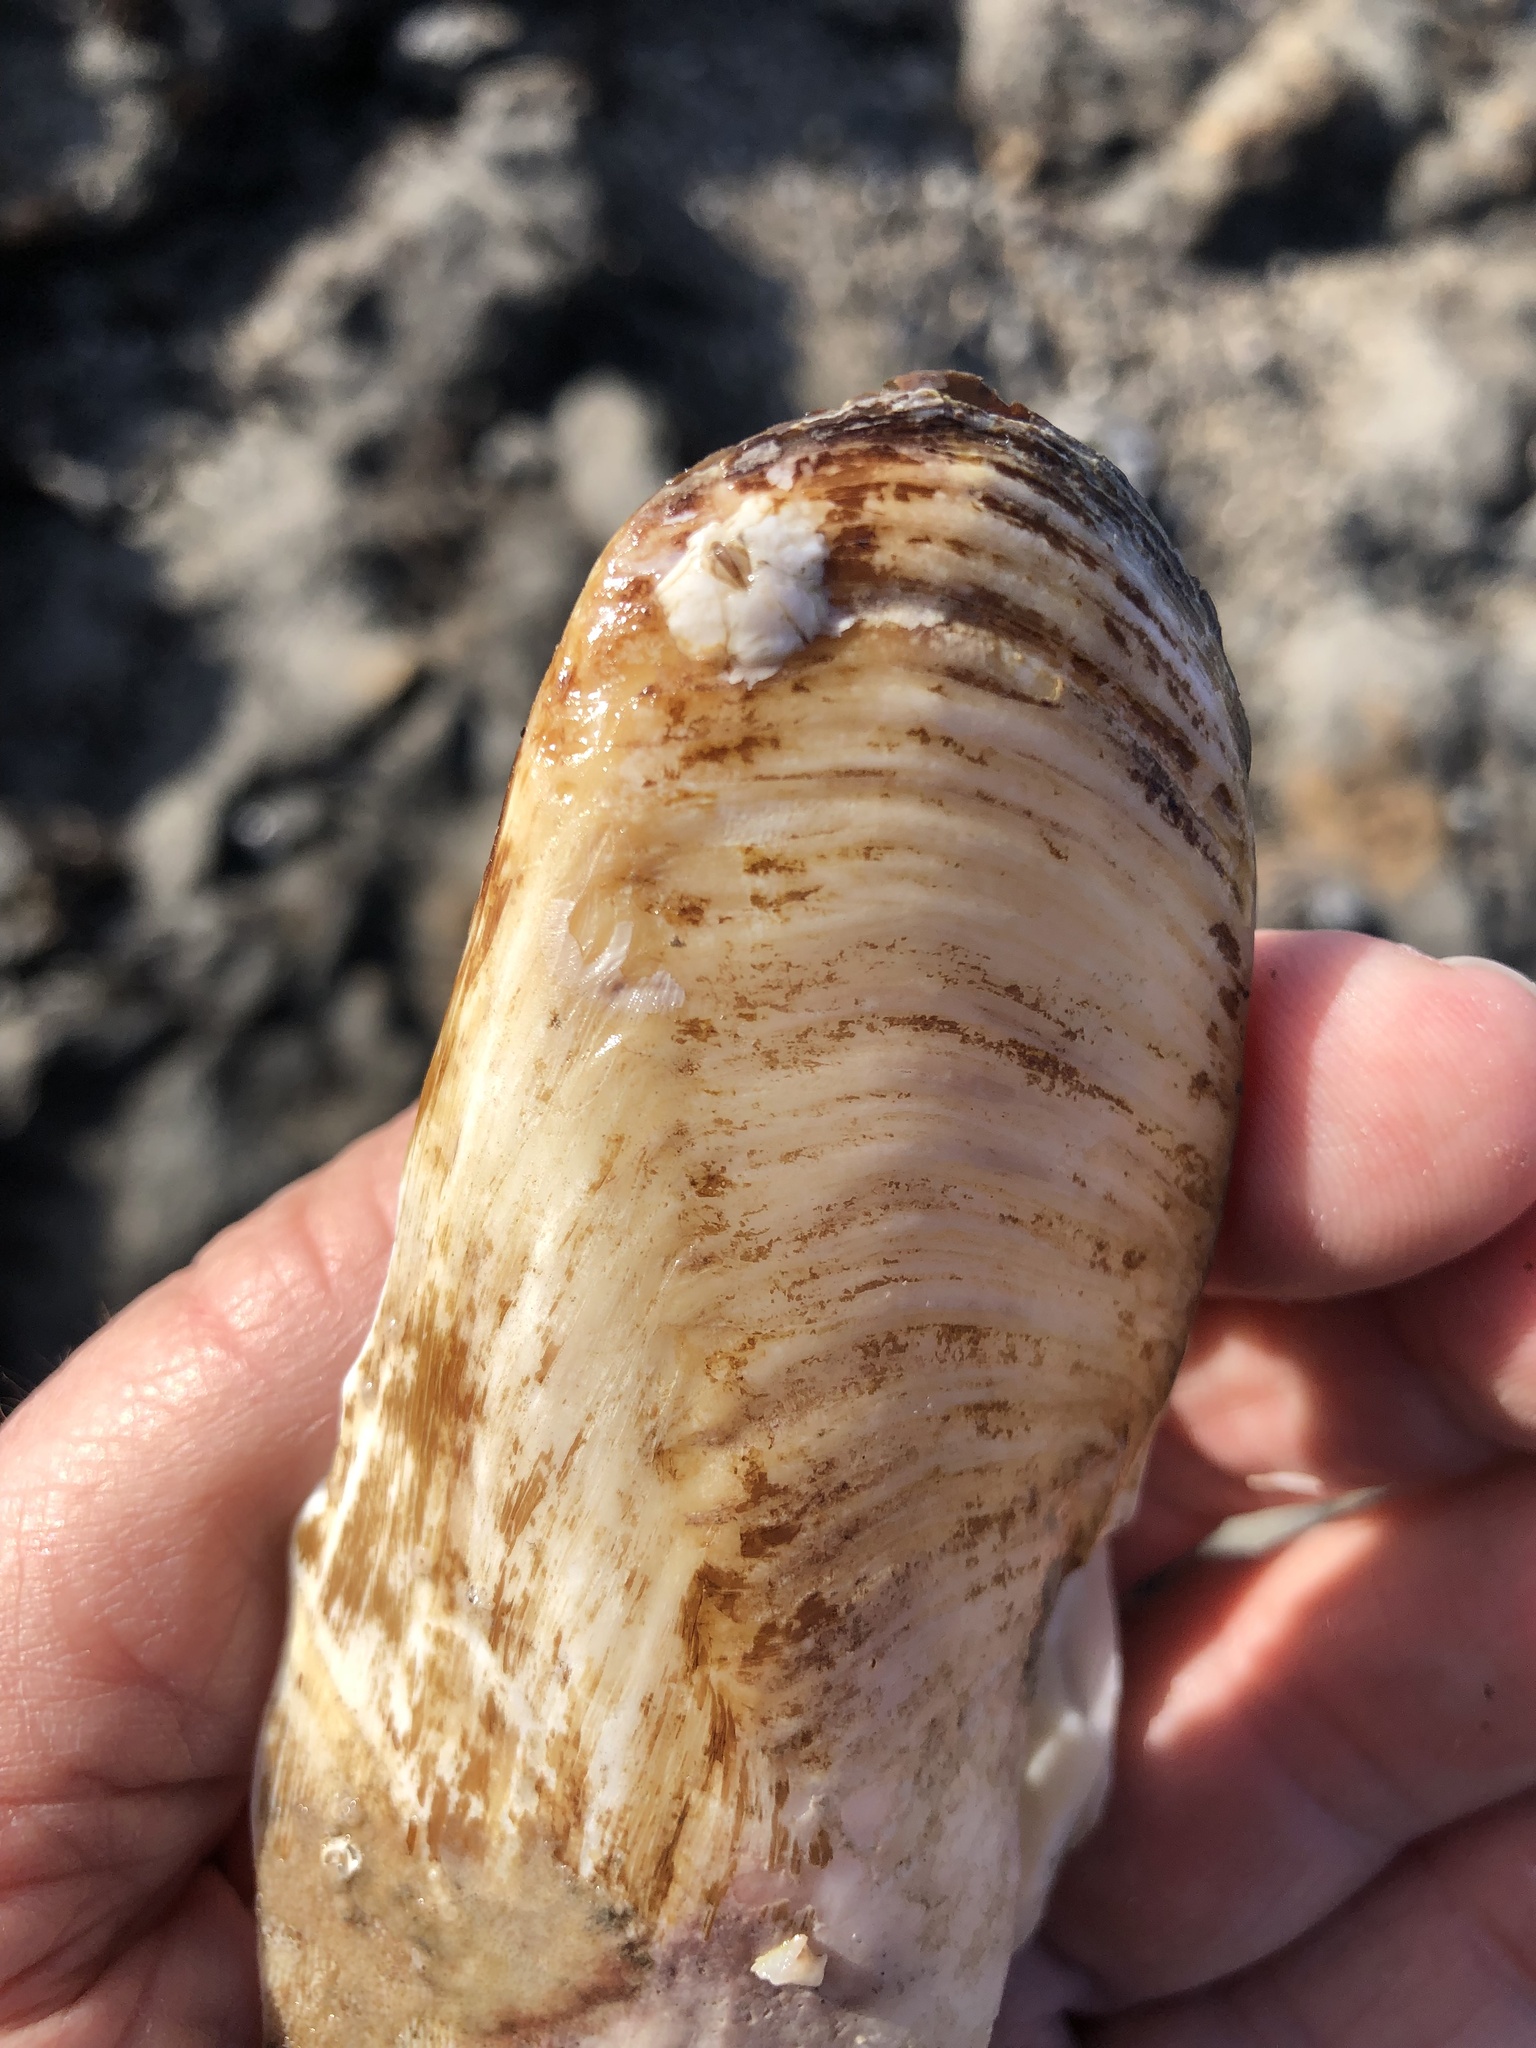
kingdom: Animalia
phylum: Mollusca
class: Bivalvia
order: Myida
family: Pholadidae
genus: Parapholas
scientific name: Parapholas californica
